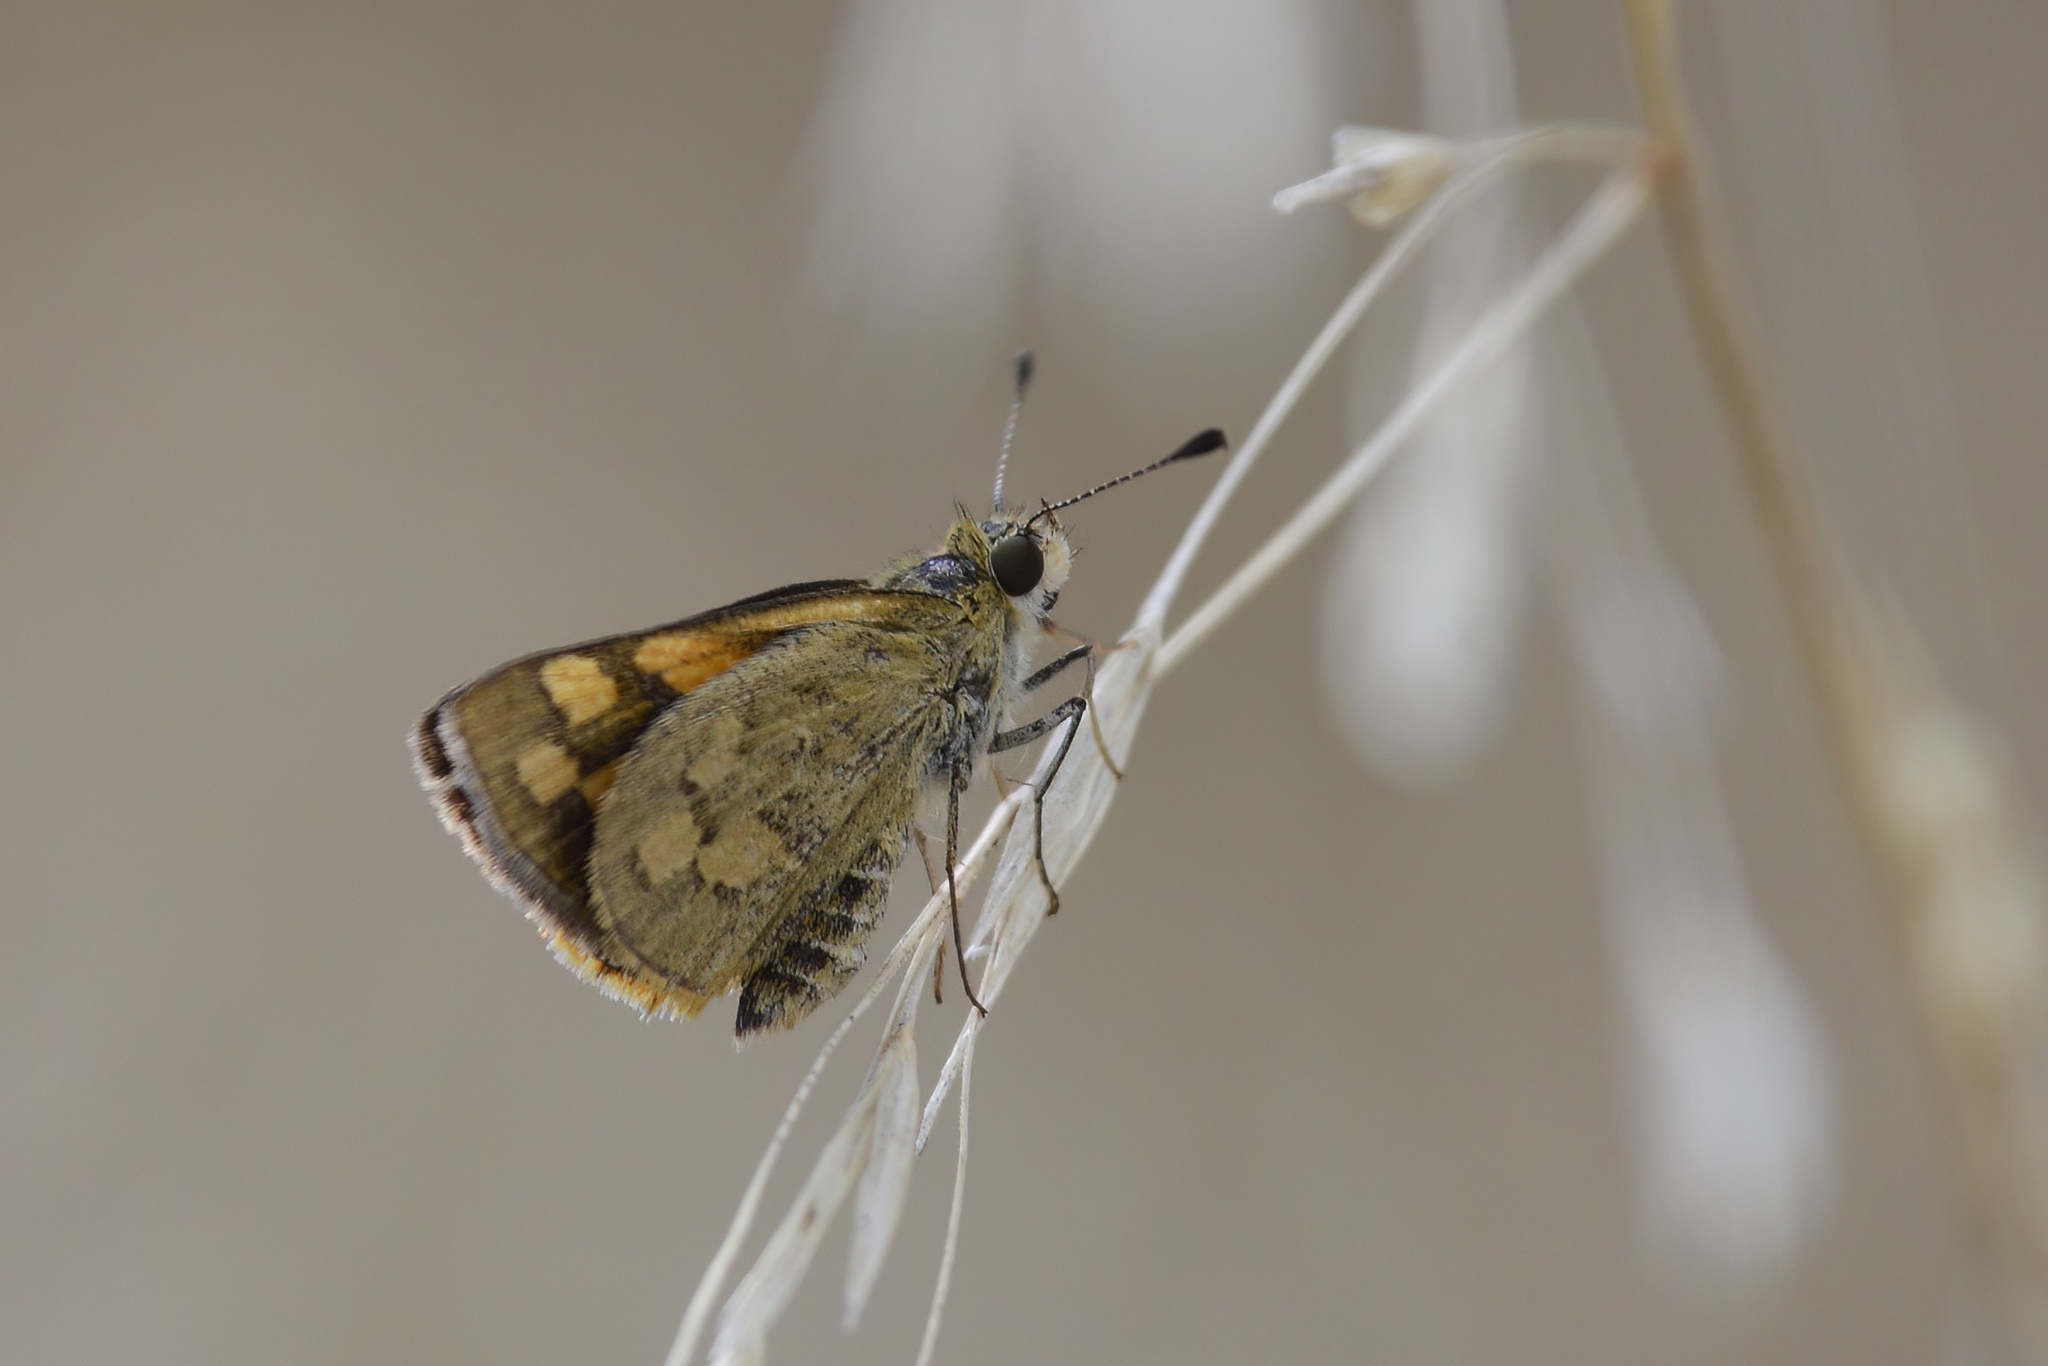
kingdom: Animalia
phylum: Arthropoda
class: Insecta
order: Lepidoptera
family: Hesperiidae
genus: Ocybadistes
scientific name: Ocybadistes walkeri
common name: Yellow-banded dart
